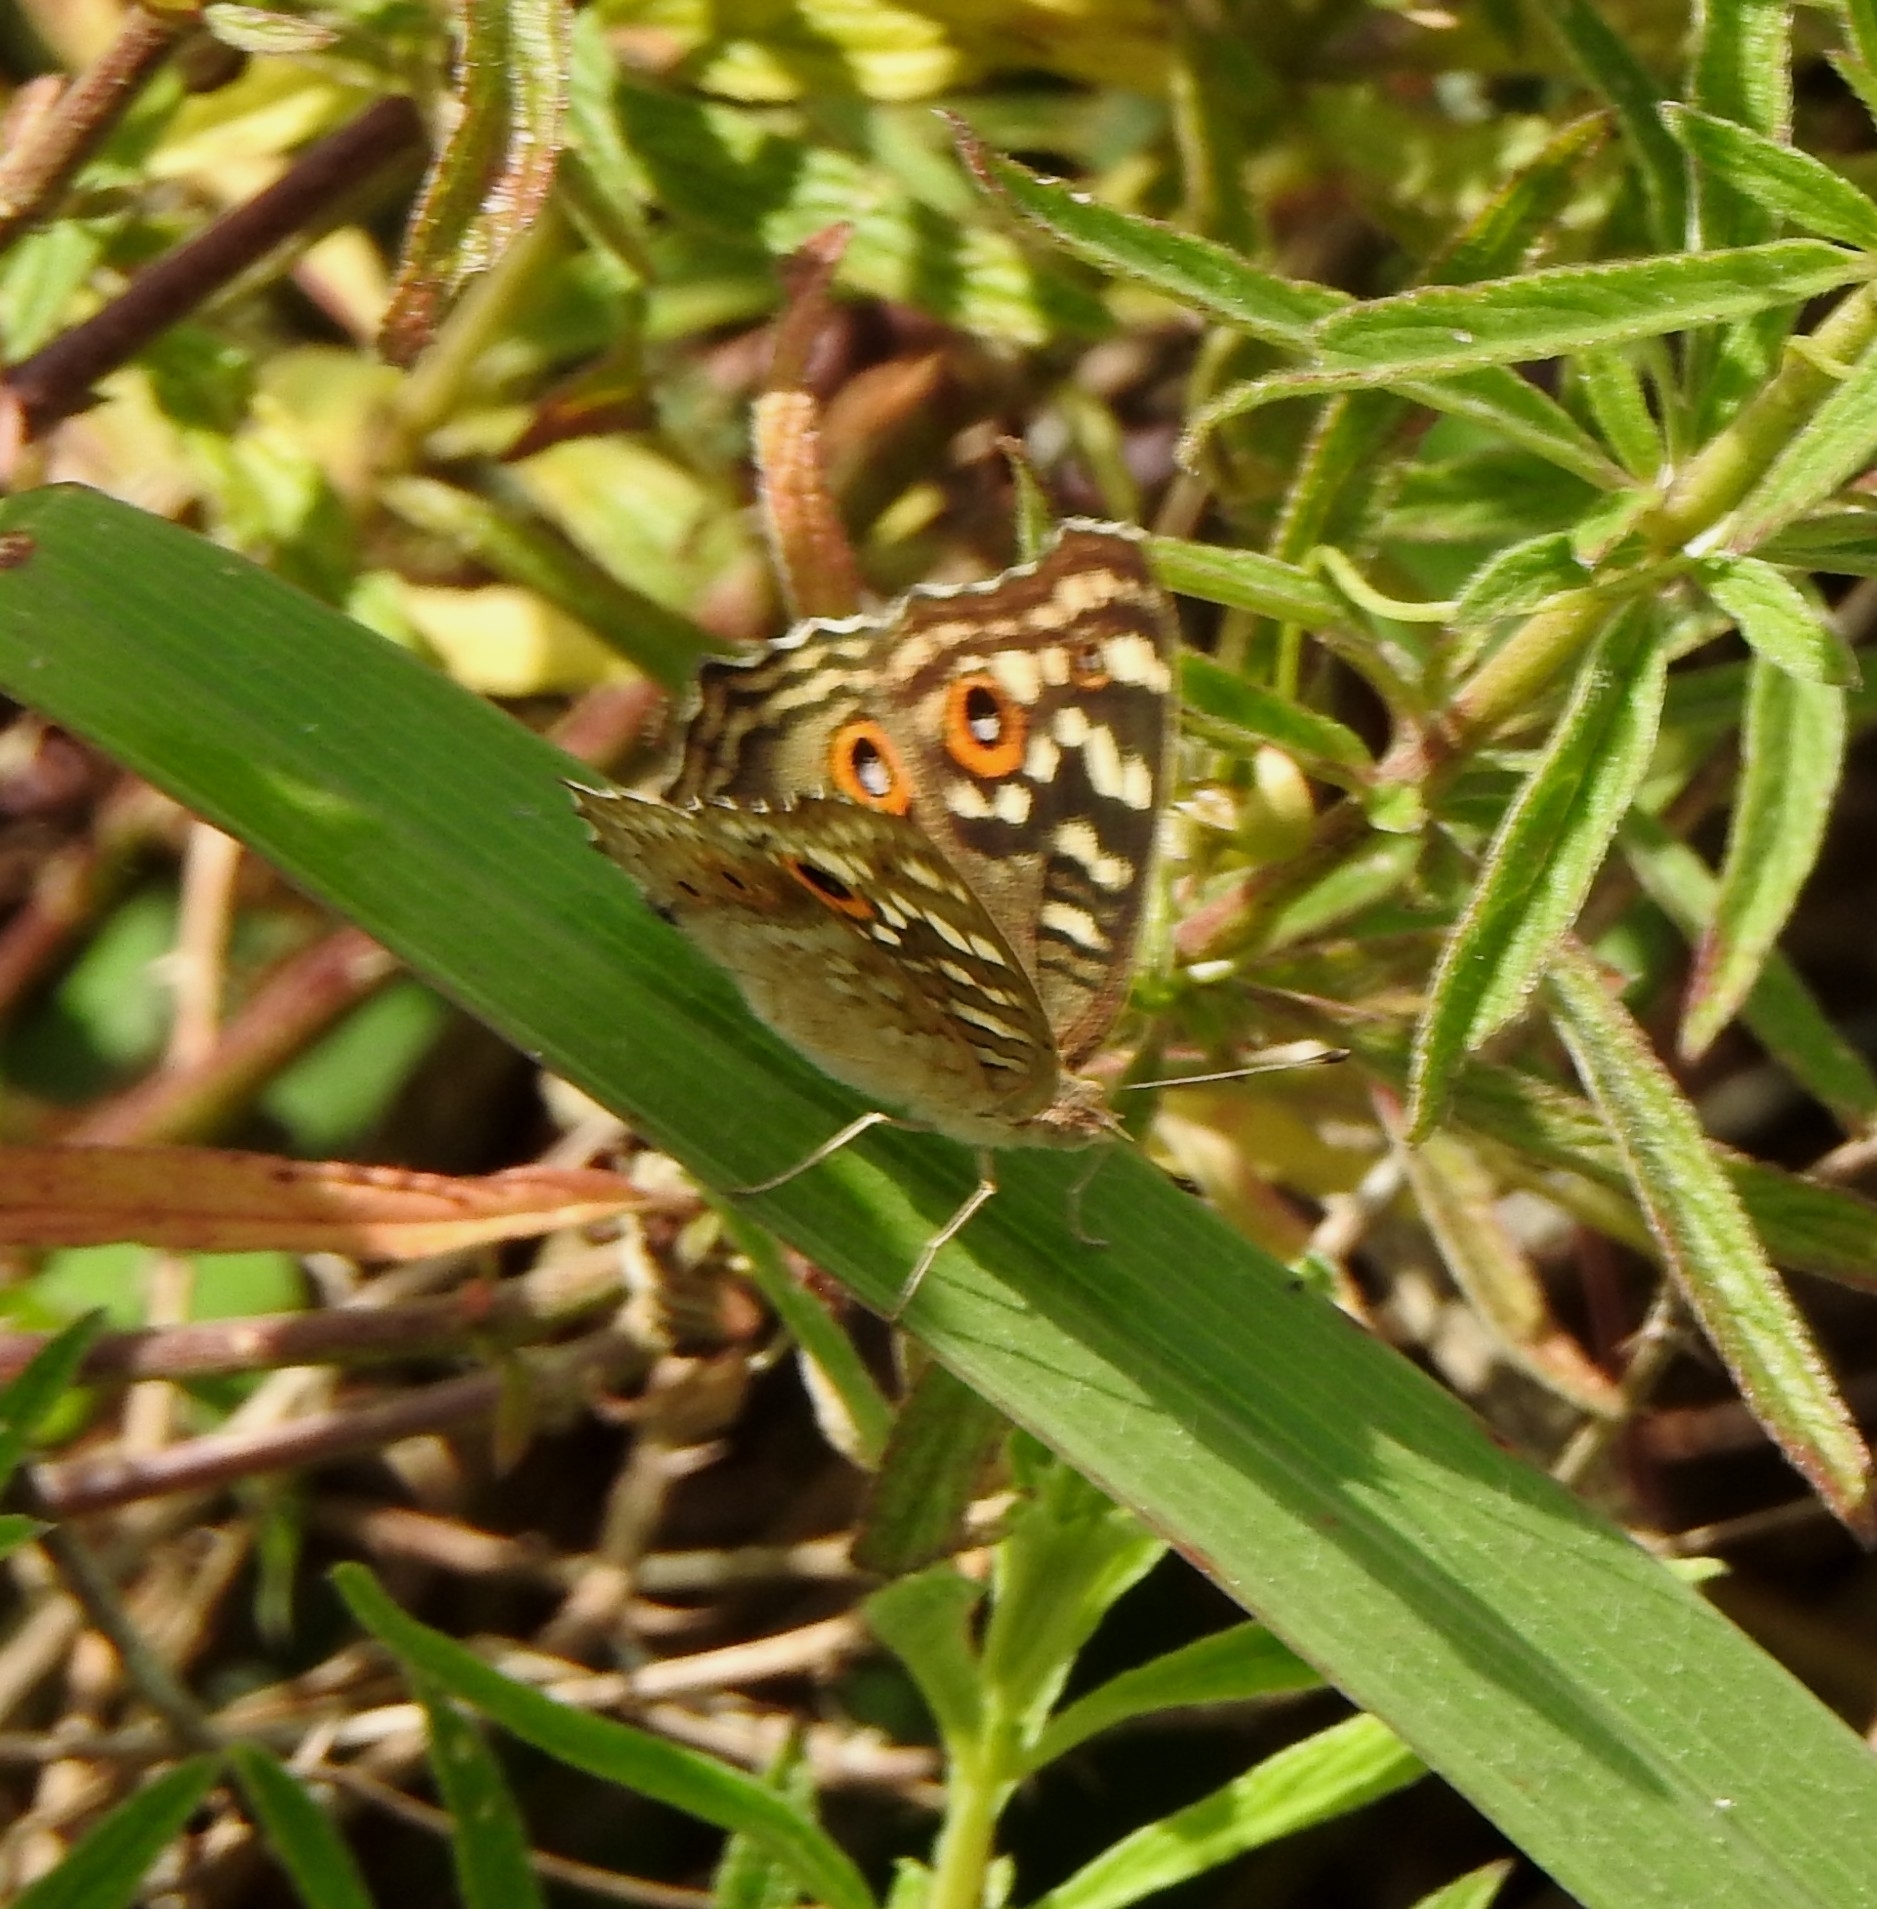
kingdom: Animalia
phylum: Arthropoda
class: Insecta
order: Lepidoptera
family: Nymphalidae
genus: Junonia
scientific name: Junonia lemonias
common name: Lemon pansy
